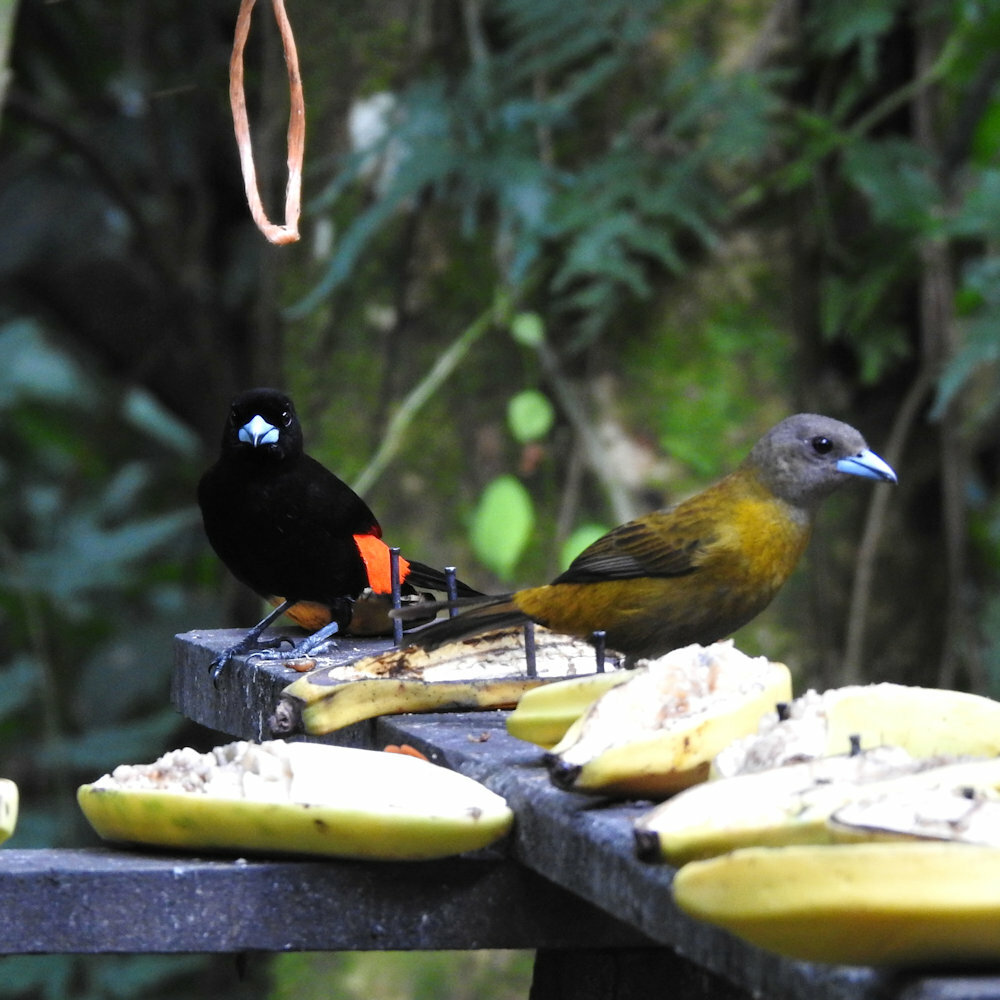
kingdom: Animalia
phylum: Chordata
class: Aves
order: Passeriformes
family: Thraupidae
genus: Ramphocelus
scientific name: Ramphocelus passerinii
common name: Passerini's tanager
